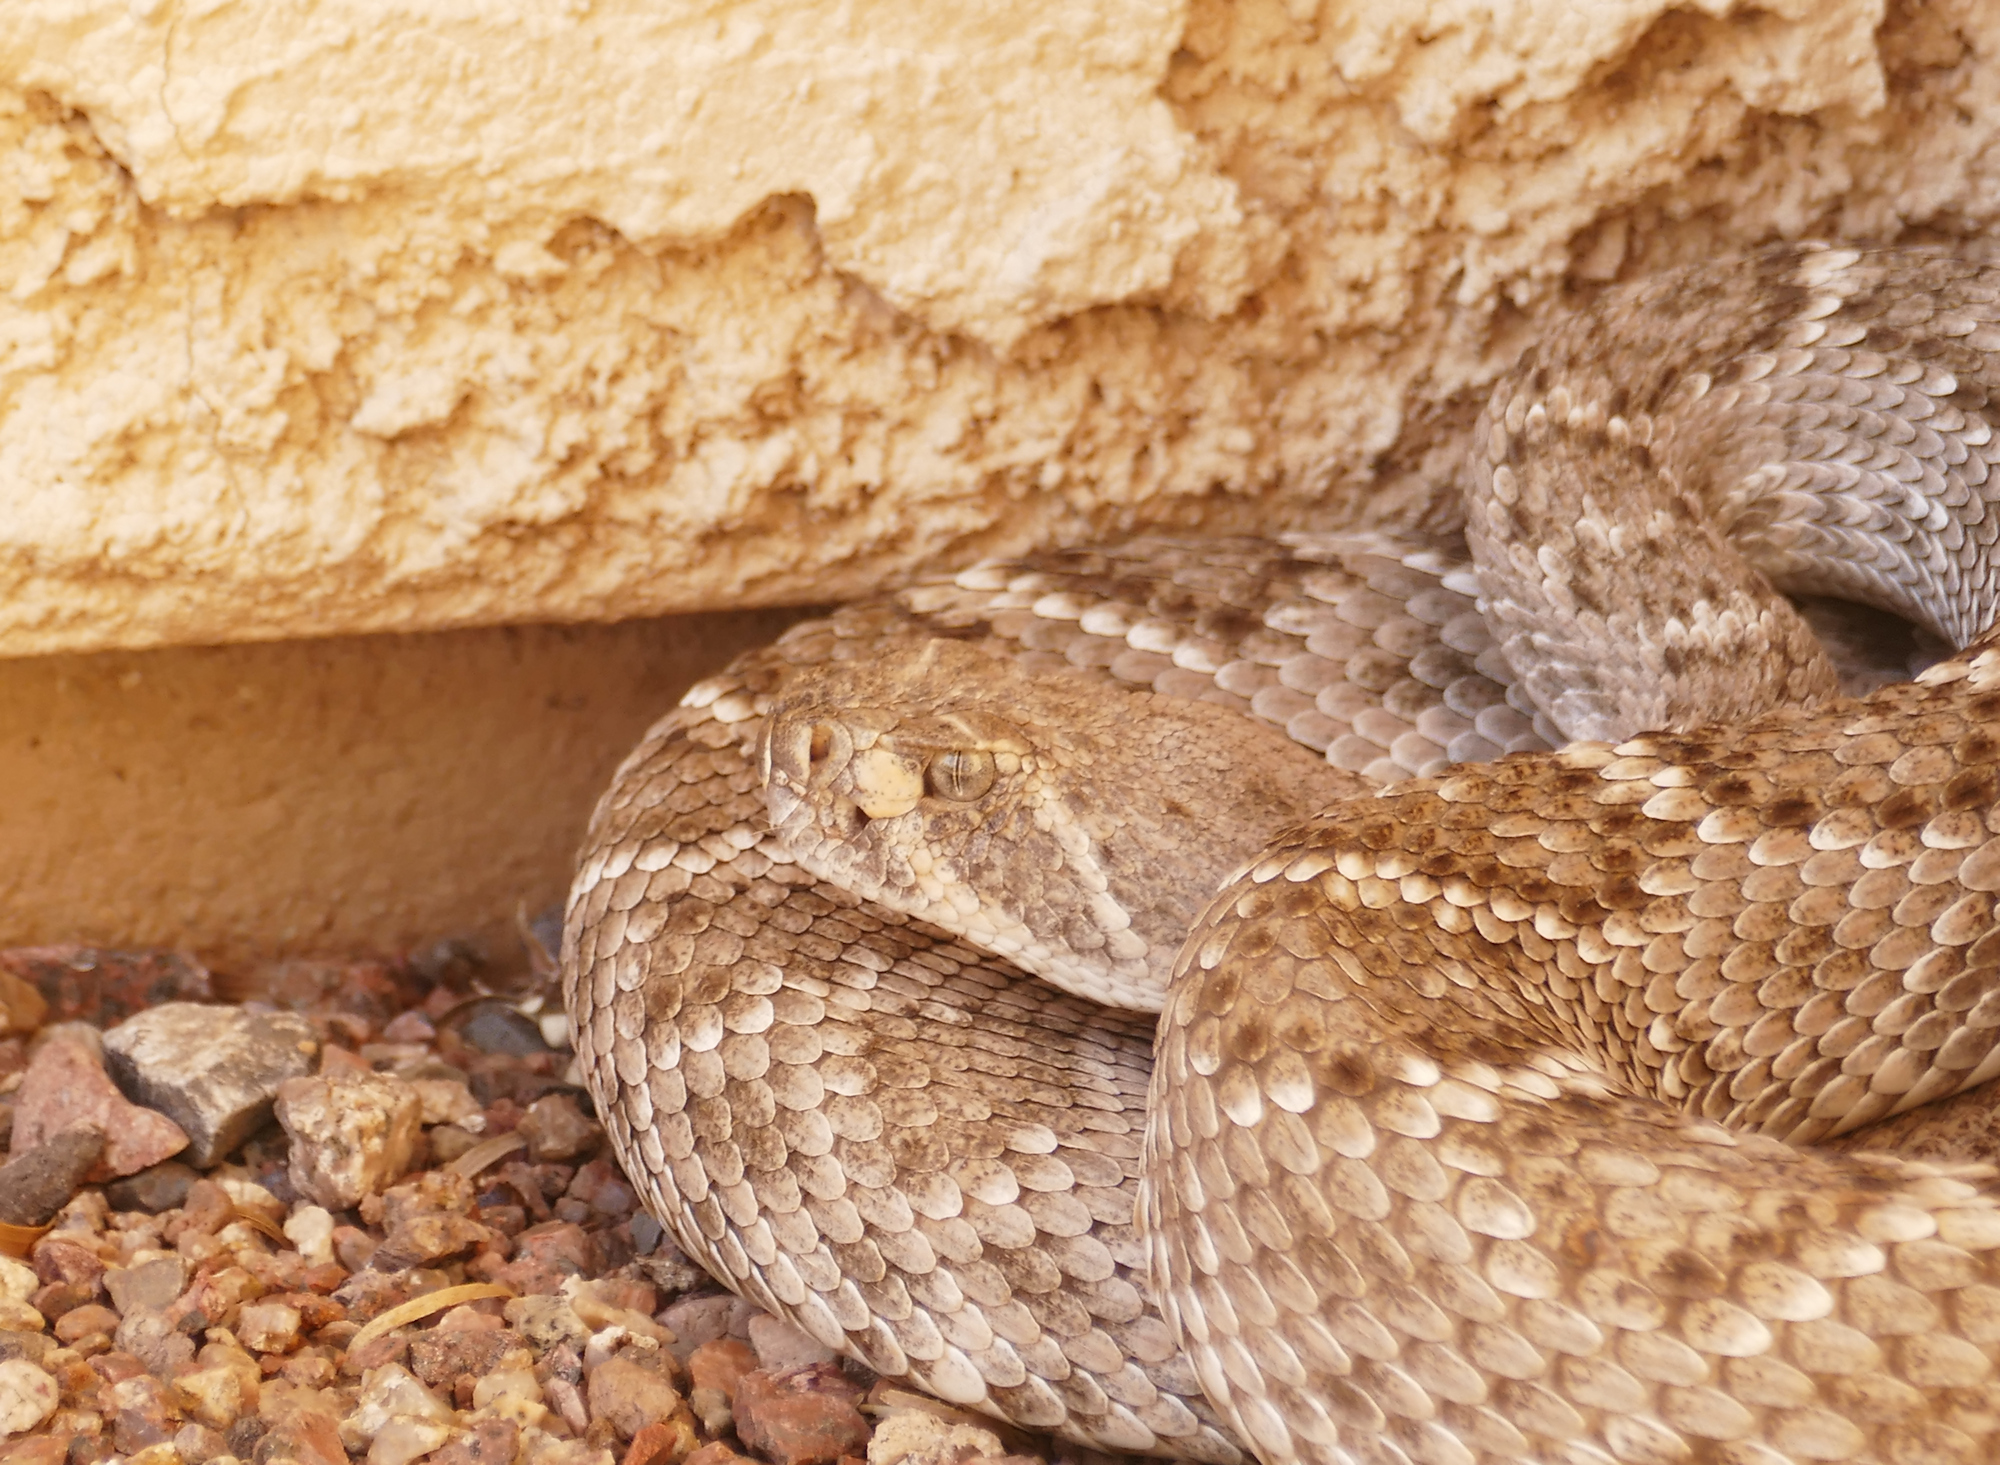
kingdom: Animalia
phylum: Chordata
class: Squamata
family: Viperidae
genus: Crotalus
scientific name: Crotalus atrox
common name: Western diamond-backed rattlesnake
